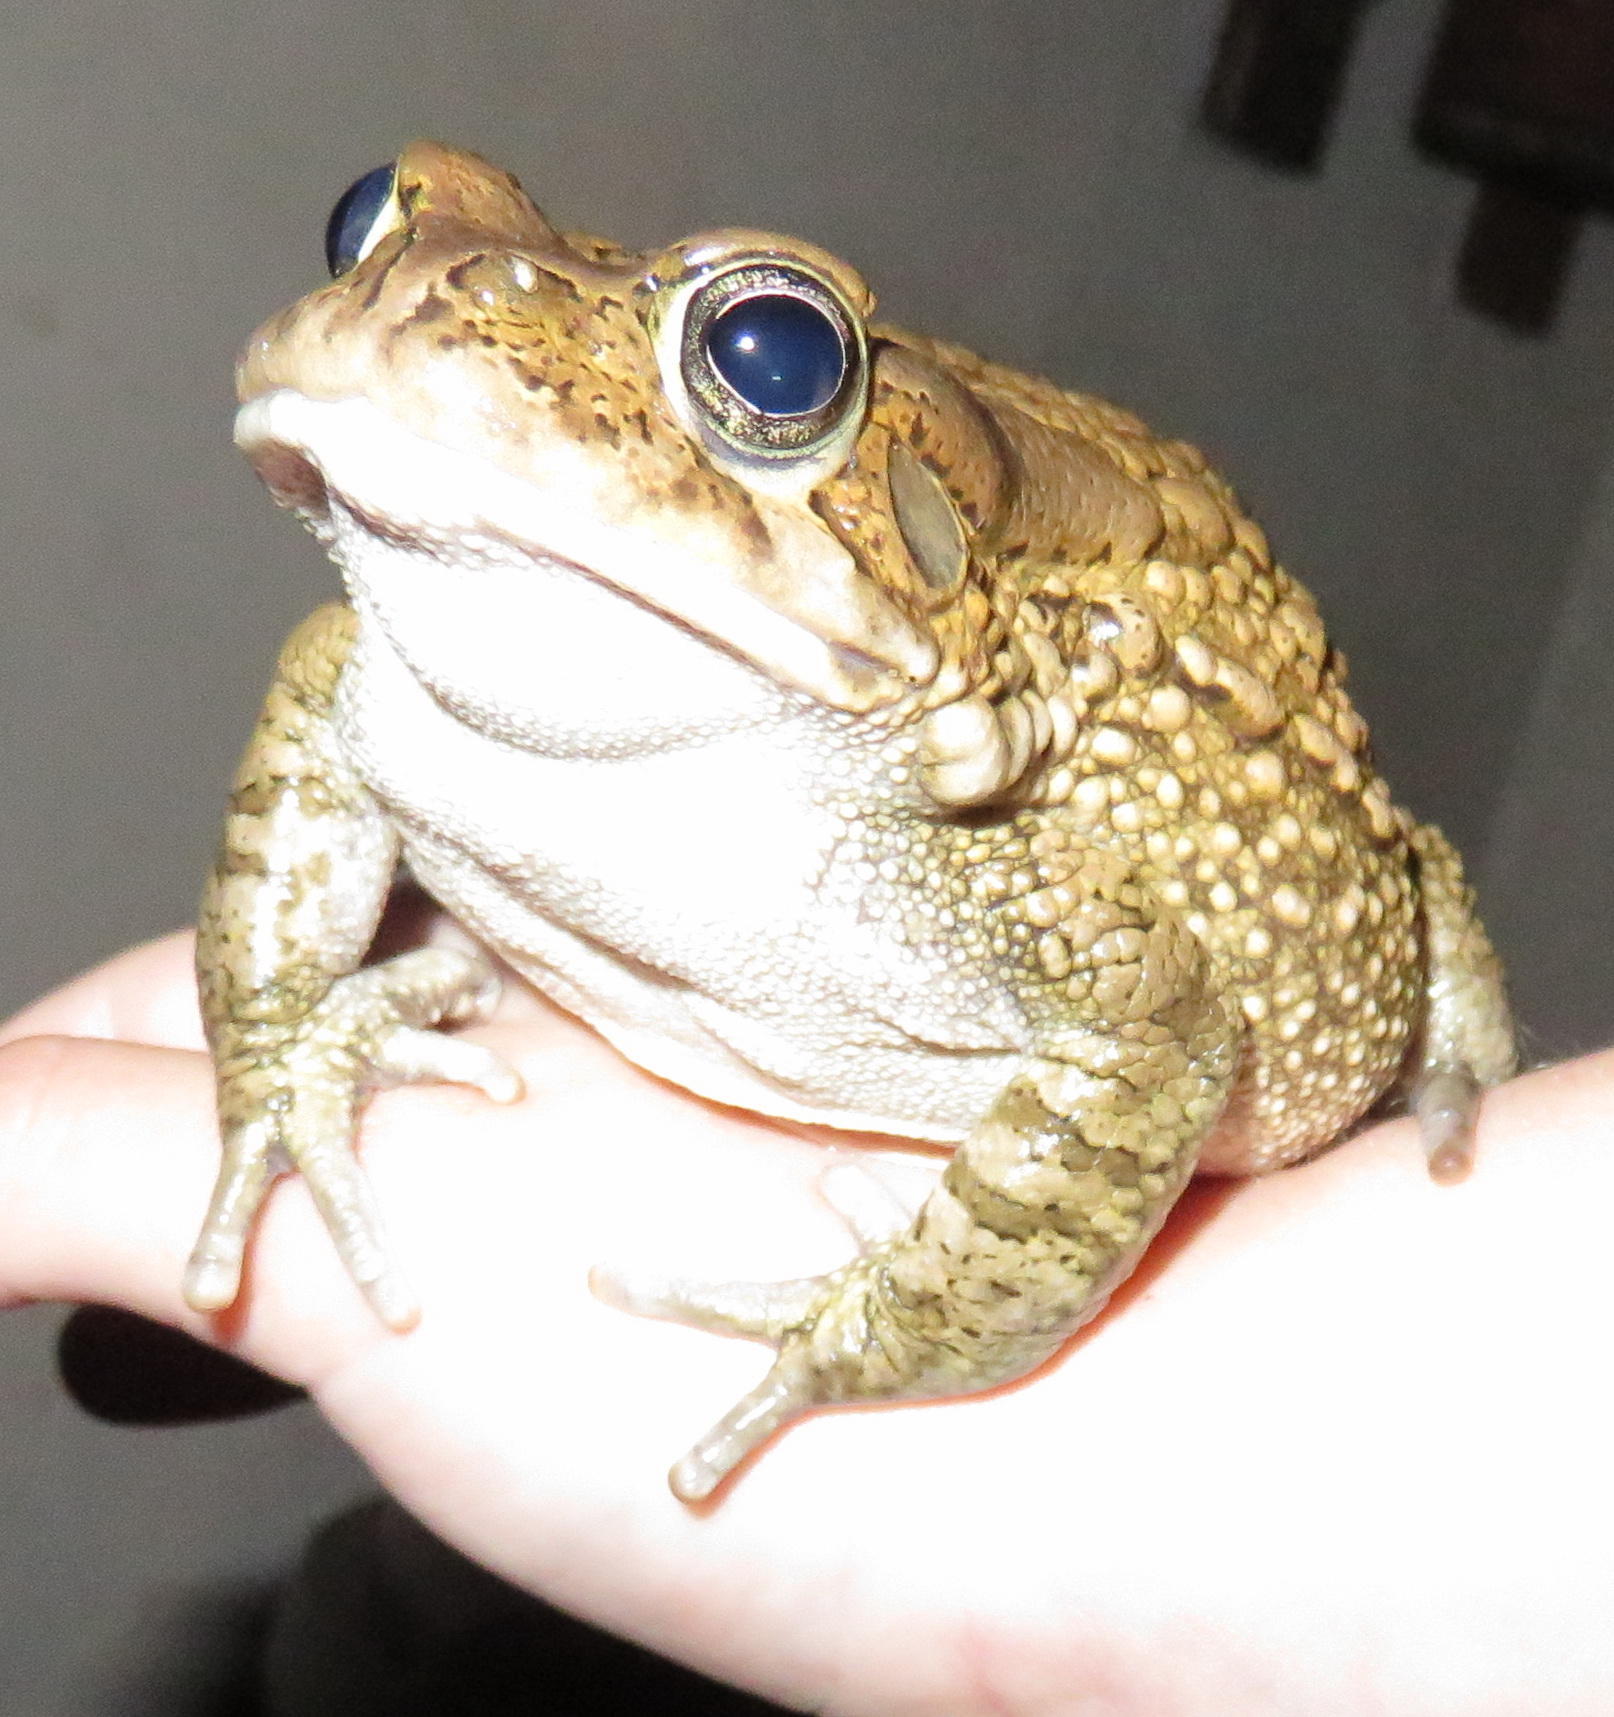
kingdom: Animalia
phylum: Chordata
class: Amphibia
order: Anura
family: Bufonidae
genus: Sclerophrys
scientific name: Sclerophrys gutturalis
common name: African common toad
